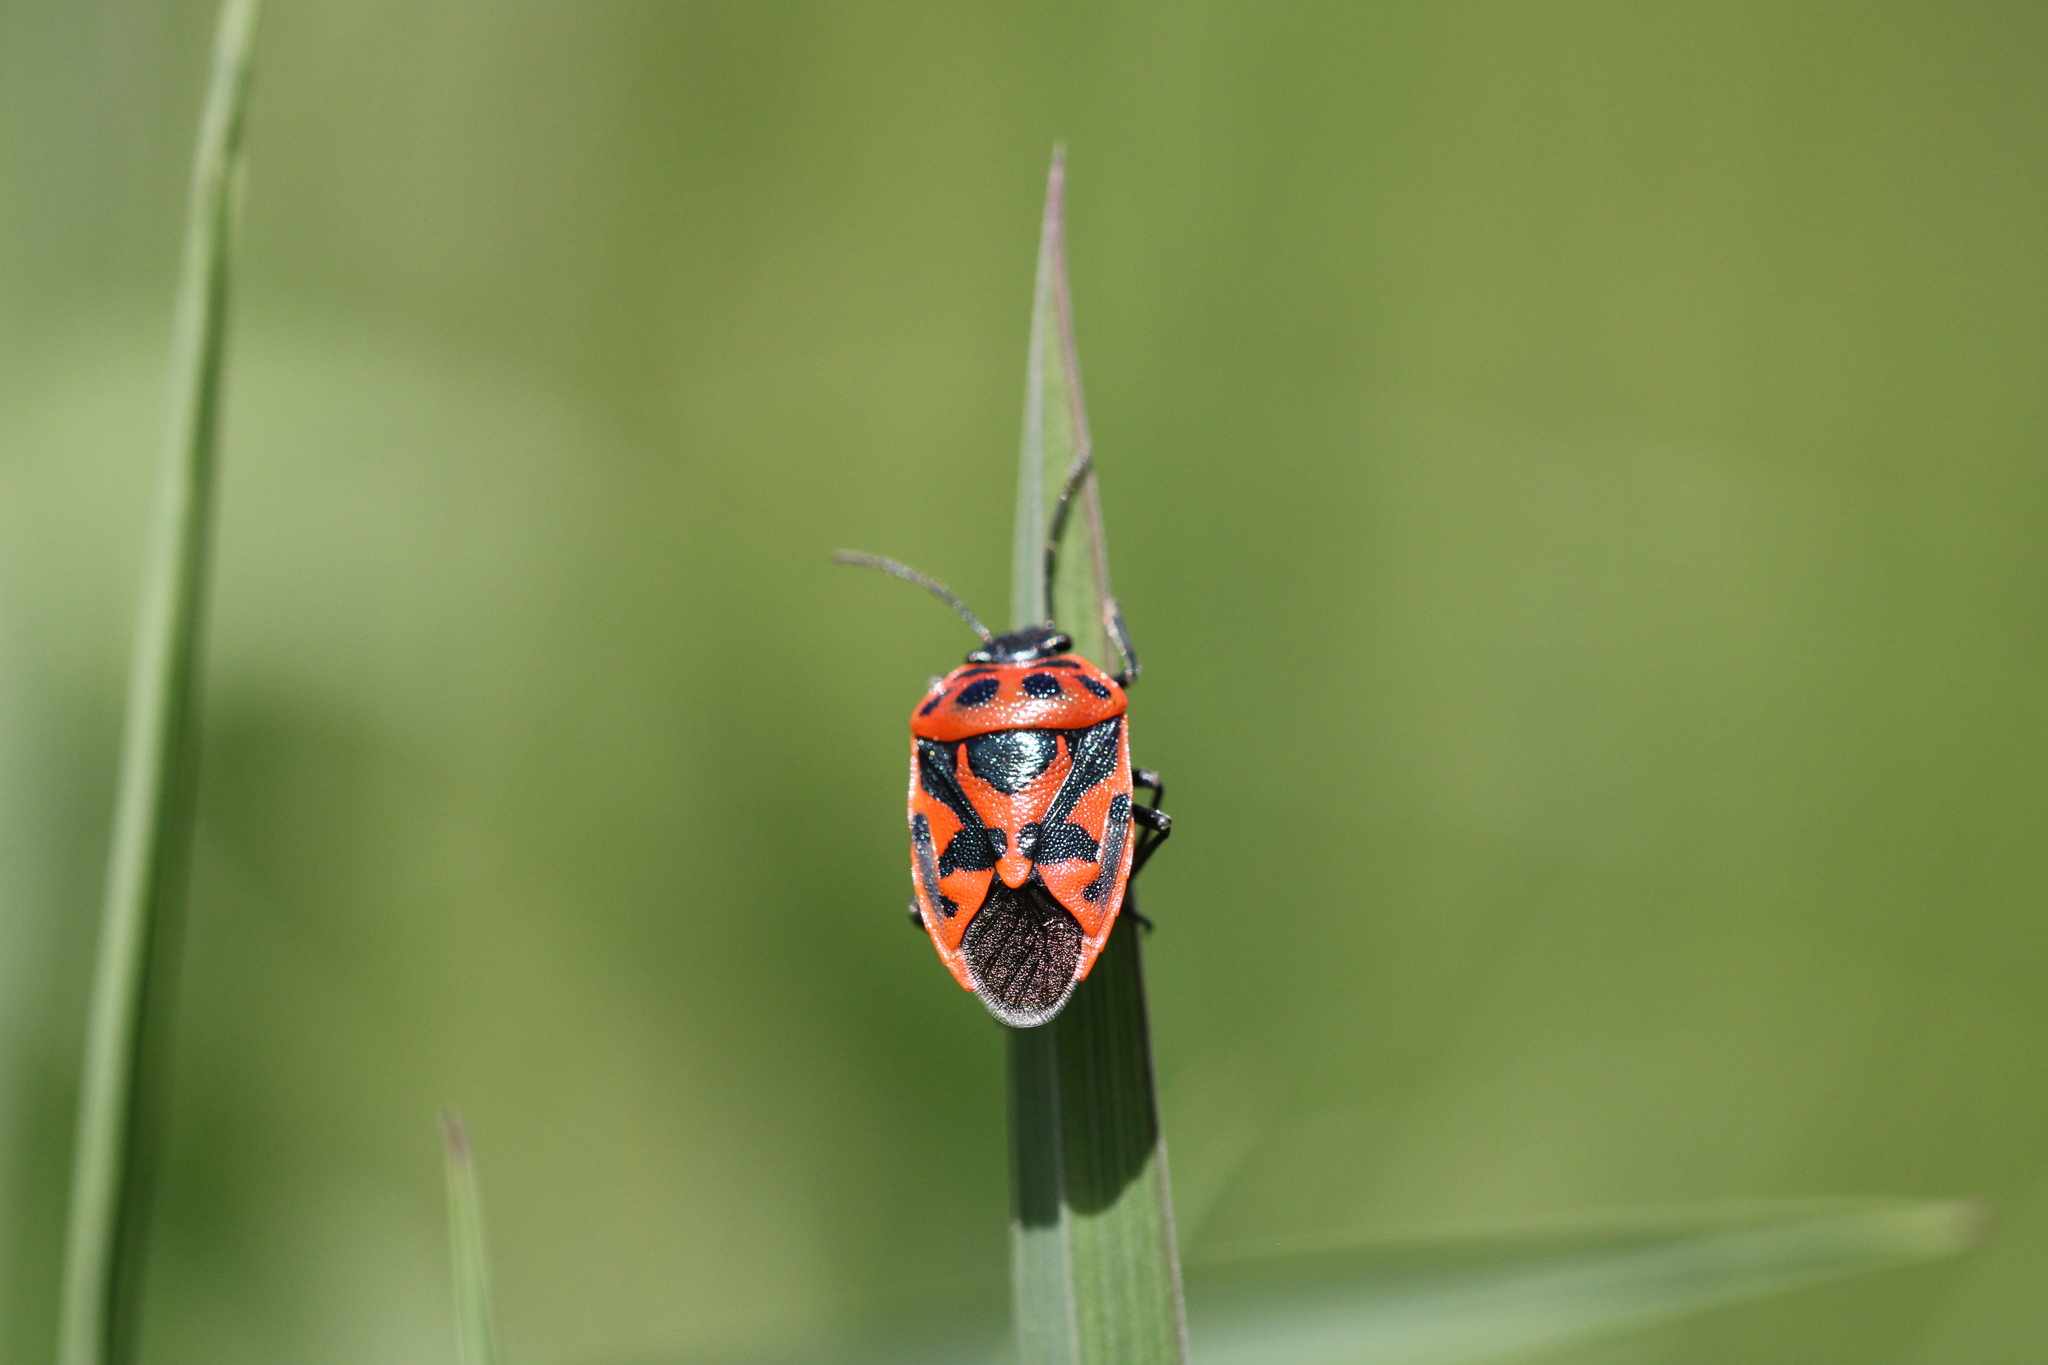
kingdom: Animalia
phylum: Arthropoda
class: Insecta
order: Hemiptera
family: Pentatomidae
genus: Eurydema
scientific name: Eurydema ornata
